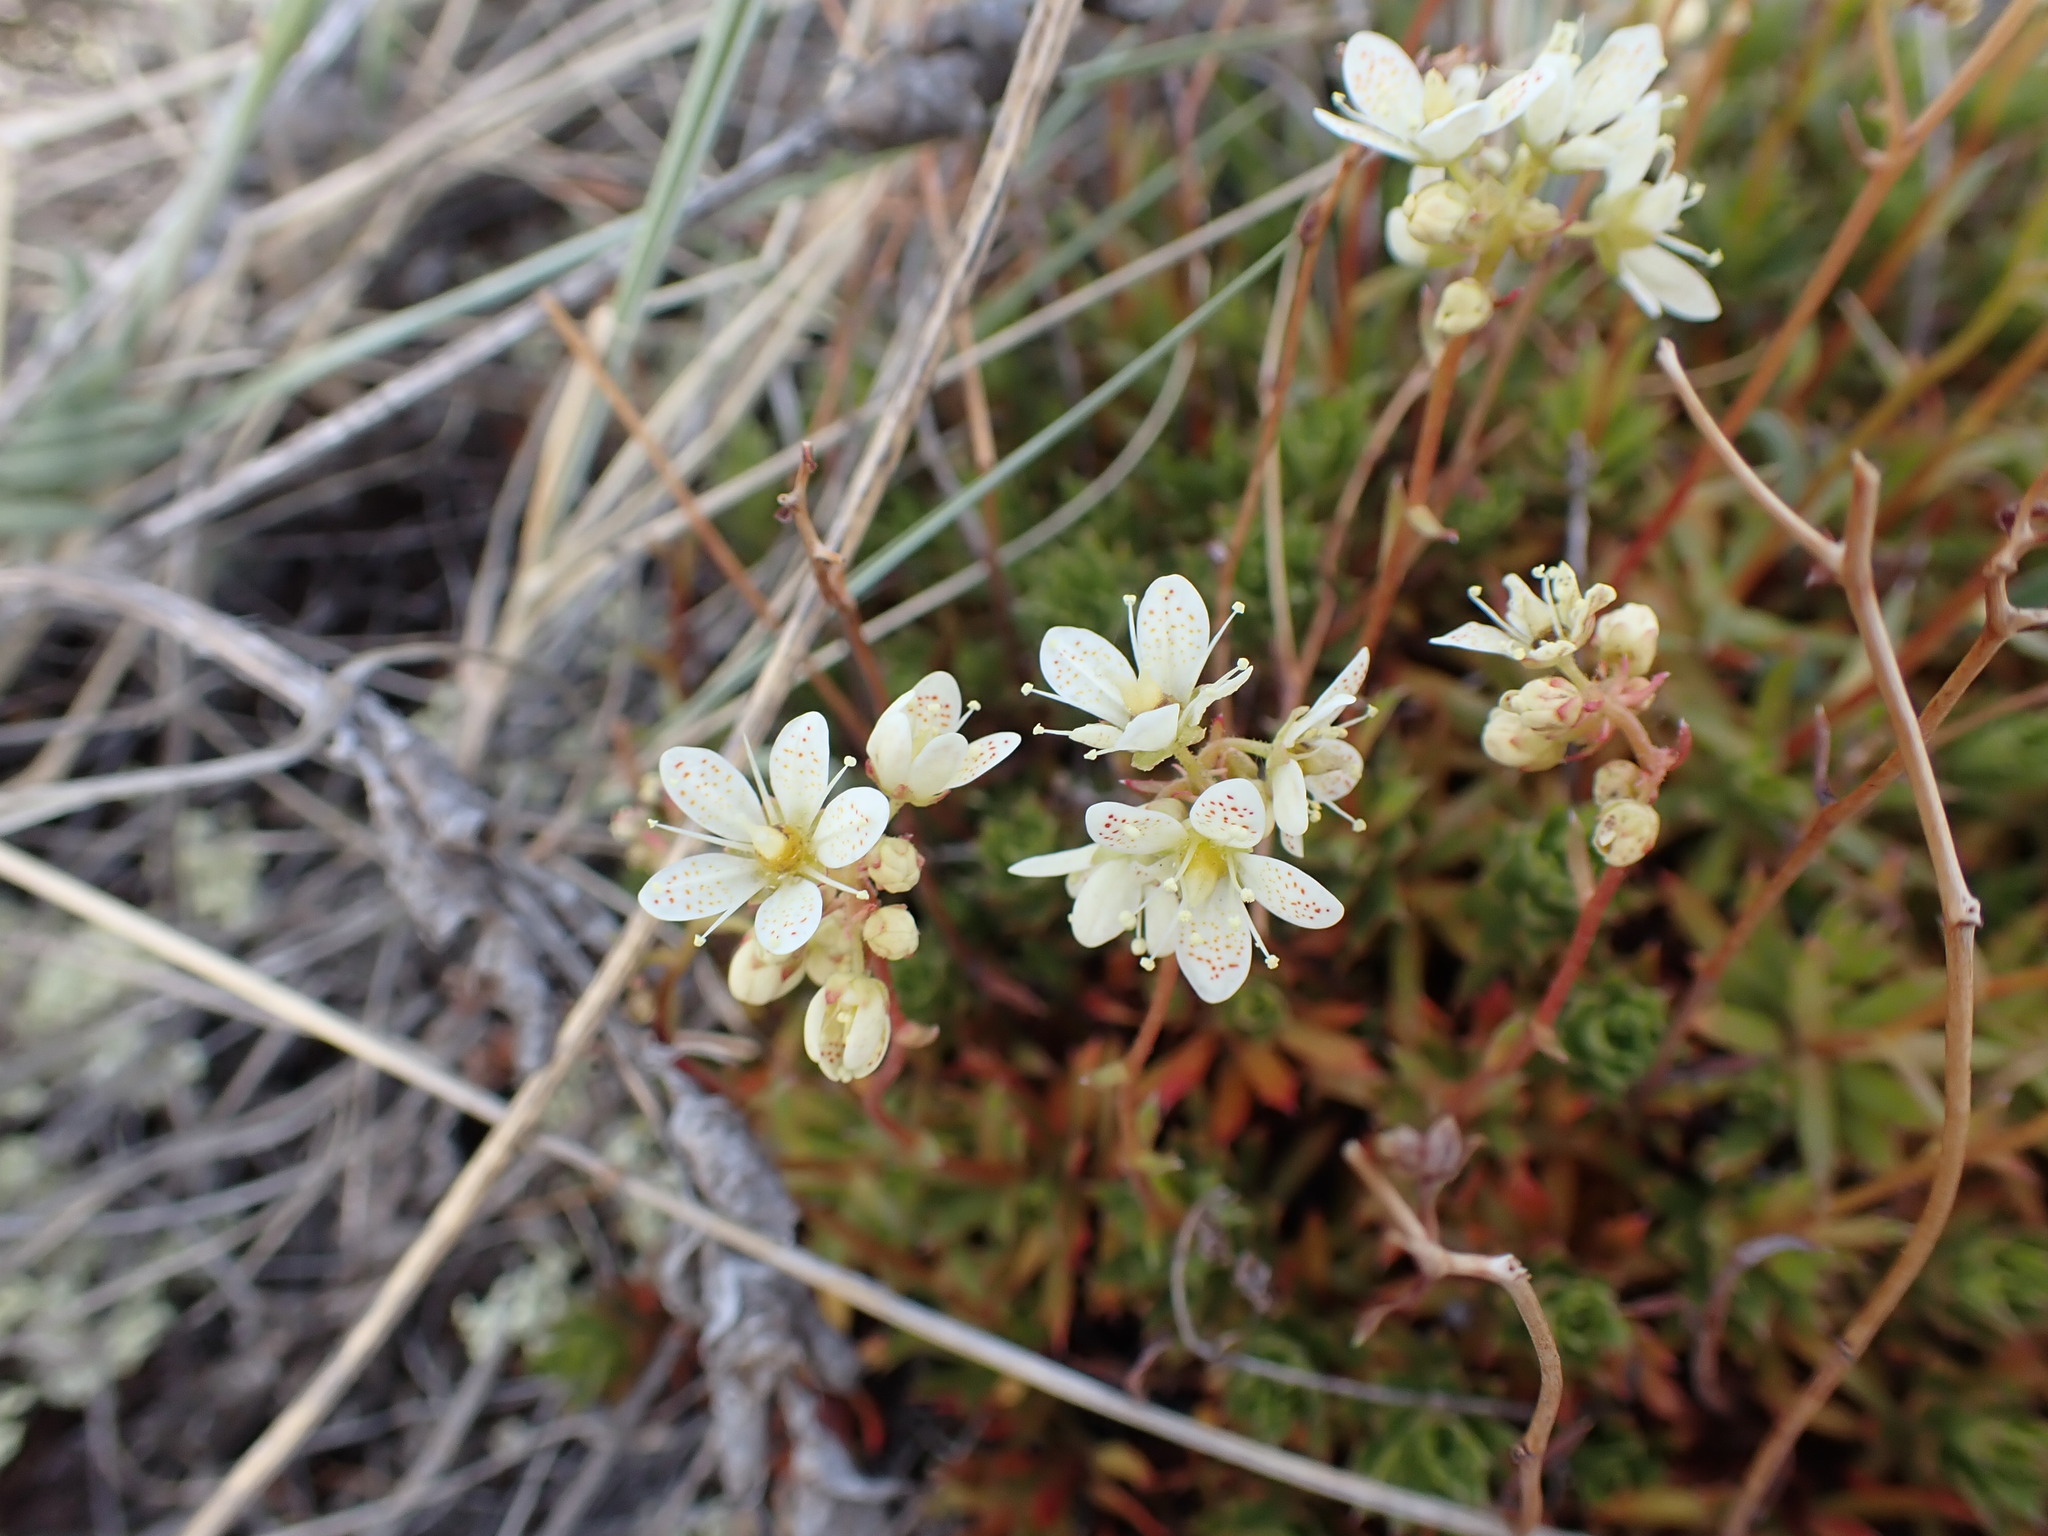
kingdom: Plantae
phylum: Tracheophyta
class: Magnoliopsida
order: Saxifragales
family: Saxifragaceae
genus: Saxifraga
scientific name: Saxifraga tricuspidata
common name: Prickly saxifrage
